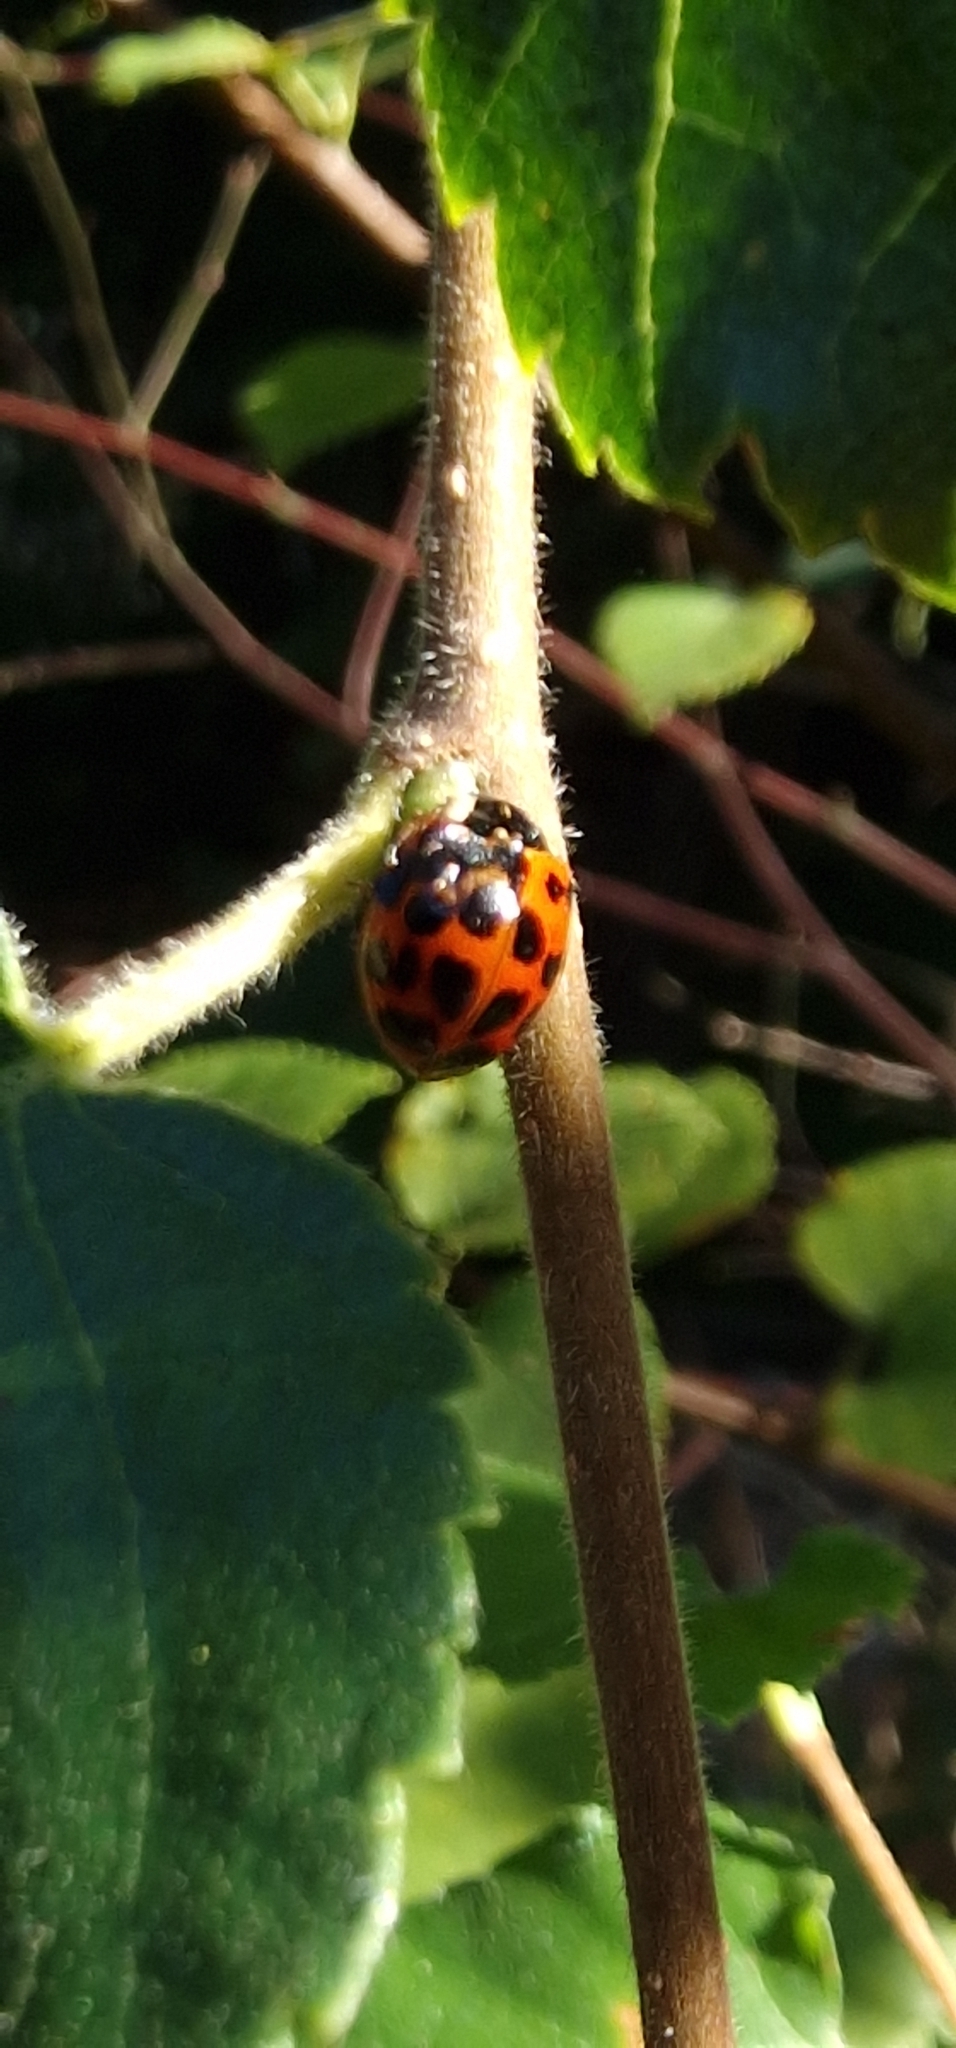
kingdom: Animalia
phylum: Arthropoda
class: Insecta
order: Coleoptera
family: Coccinellidae
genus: Harmonia
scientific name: Harmonia axyridis
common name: Harlequin ladybird
